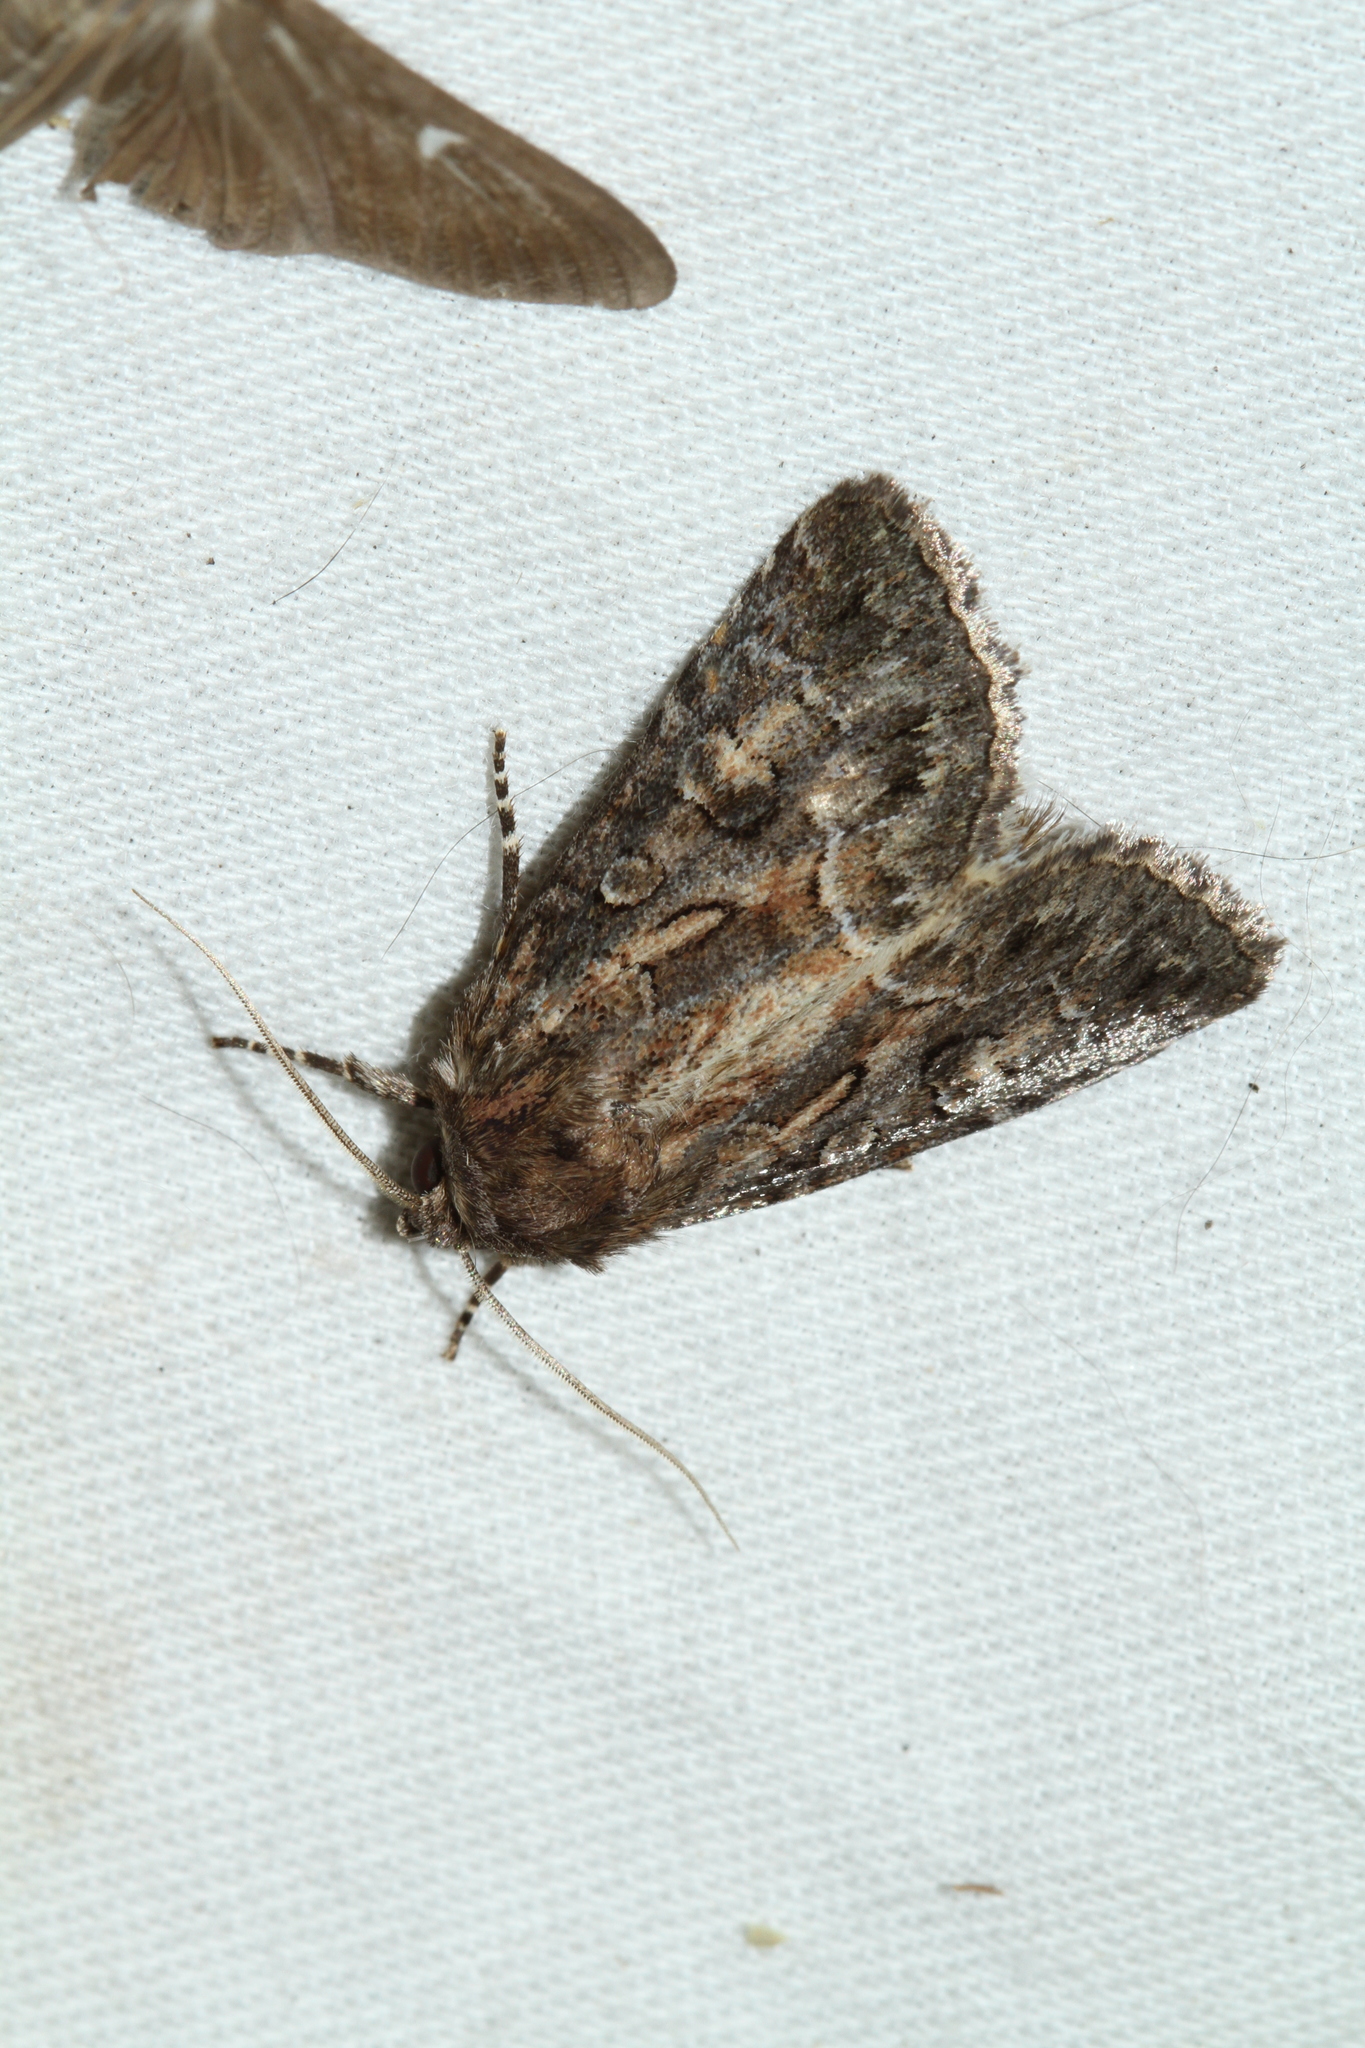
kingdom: Animalia
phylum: Arthropoda
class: Insecta
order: Lepidoptera
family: Noctuidae
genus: Thalpophila
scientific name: Thalpophila matura
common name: Straw underwing
